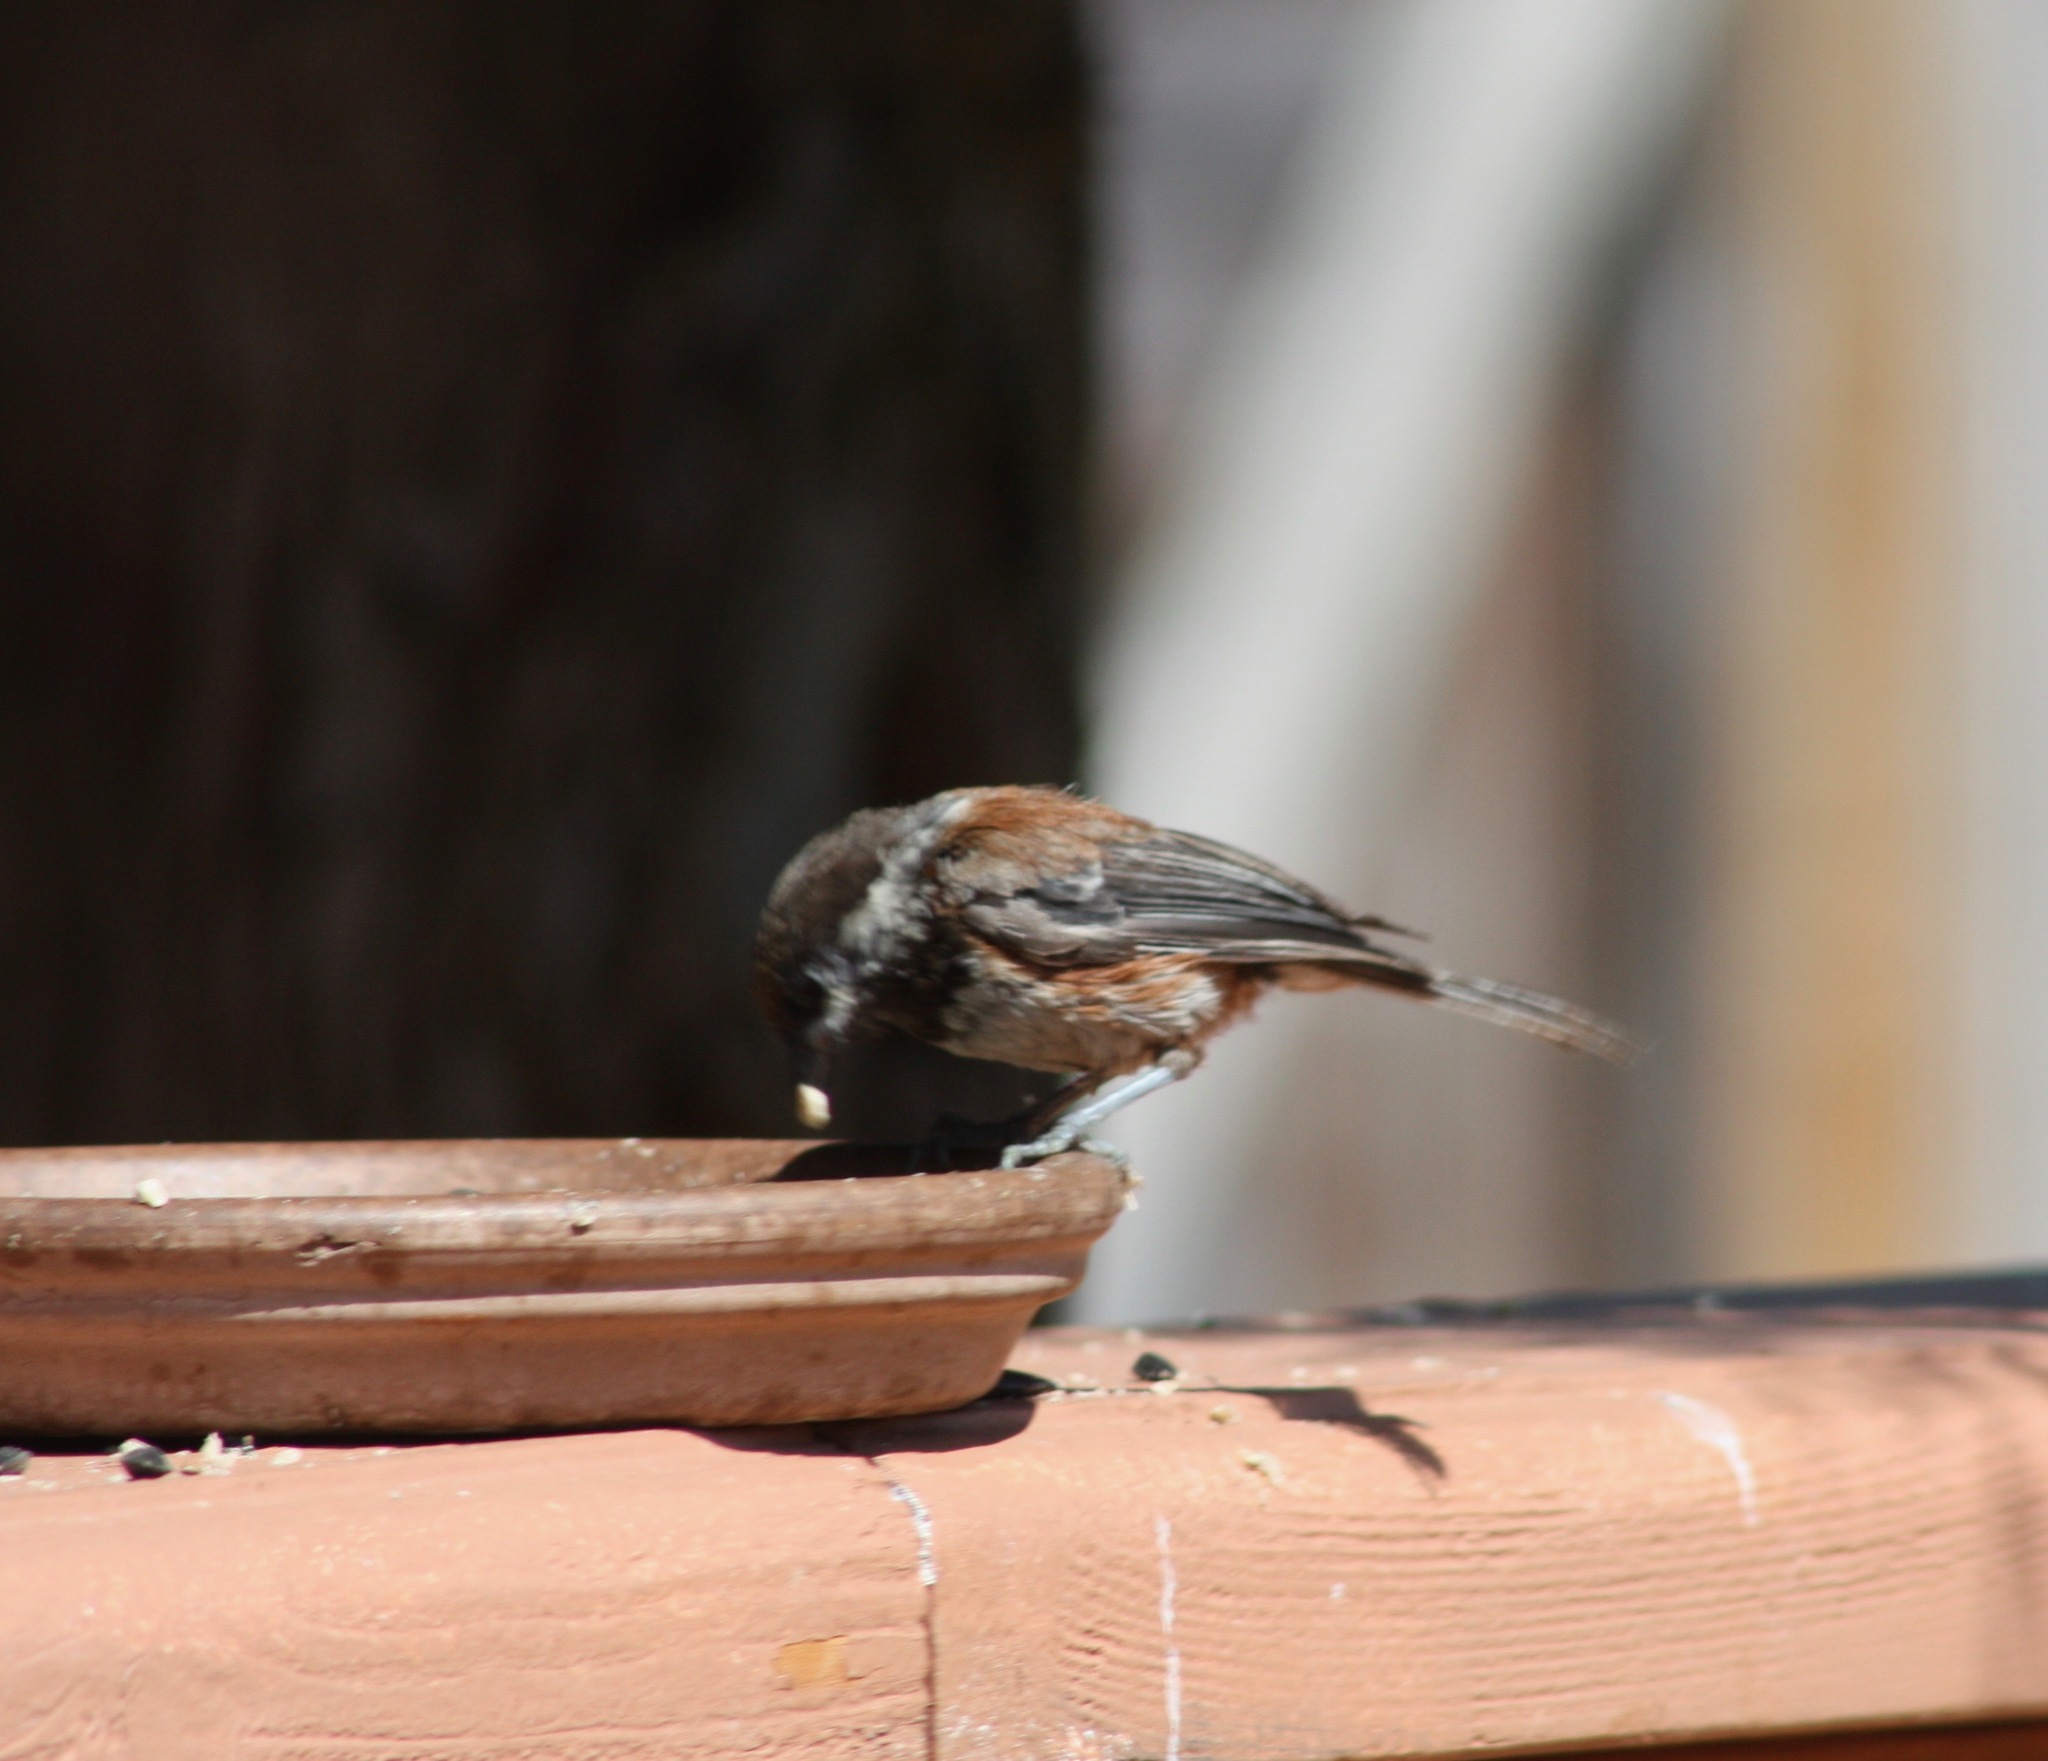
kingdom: Animalia
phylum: Chordata
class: Aves
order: Passeriformes
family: Paridae
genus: Poecile
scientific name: Poecile rufescens
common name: Chestnut-backed chickadee
